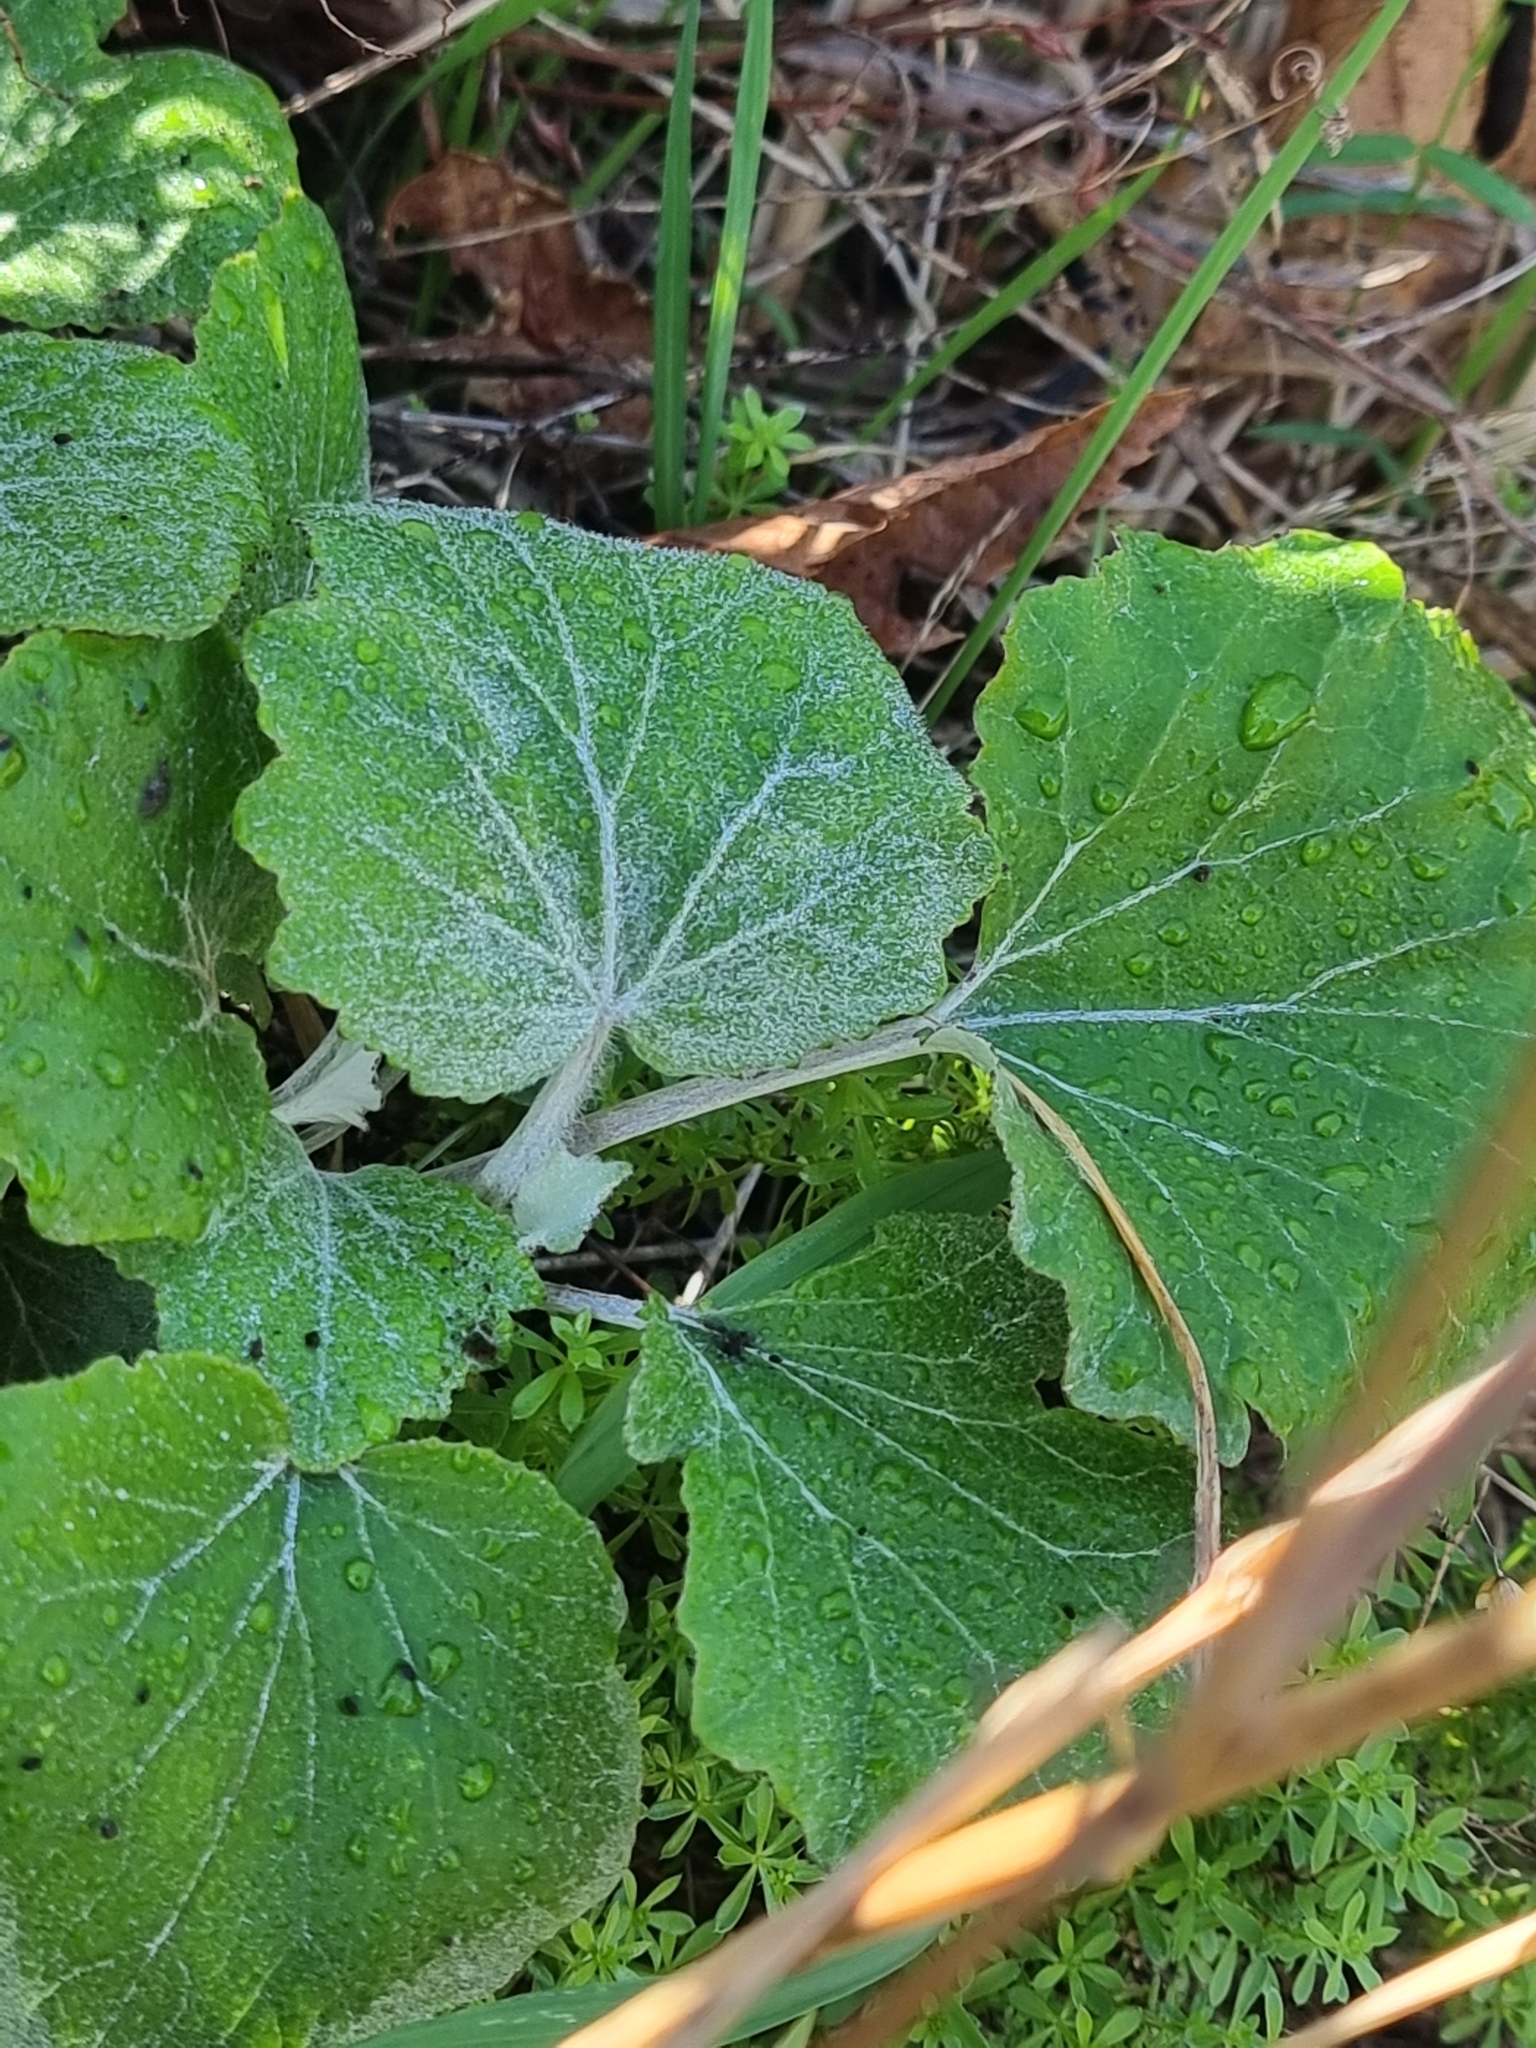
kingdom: Plantae
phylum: Tracheophyta
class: Magnoliopsida
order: Asterales
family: Asteraceae
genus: Pericallis
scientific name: Pericallis aurita
